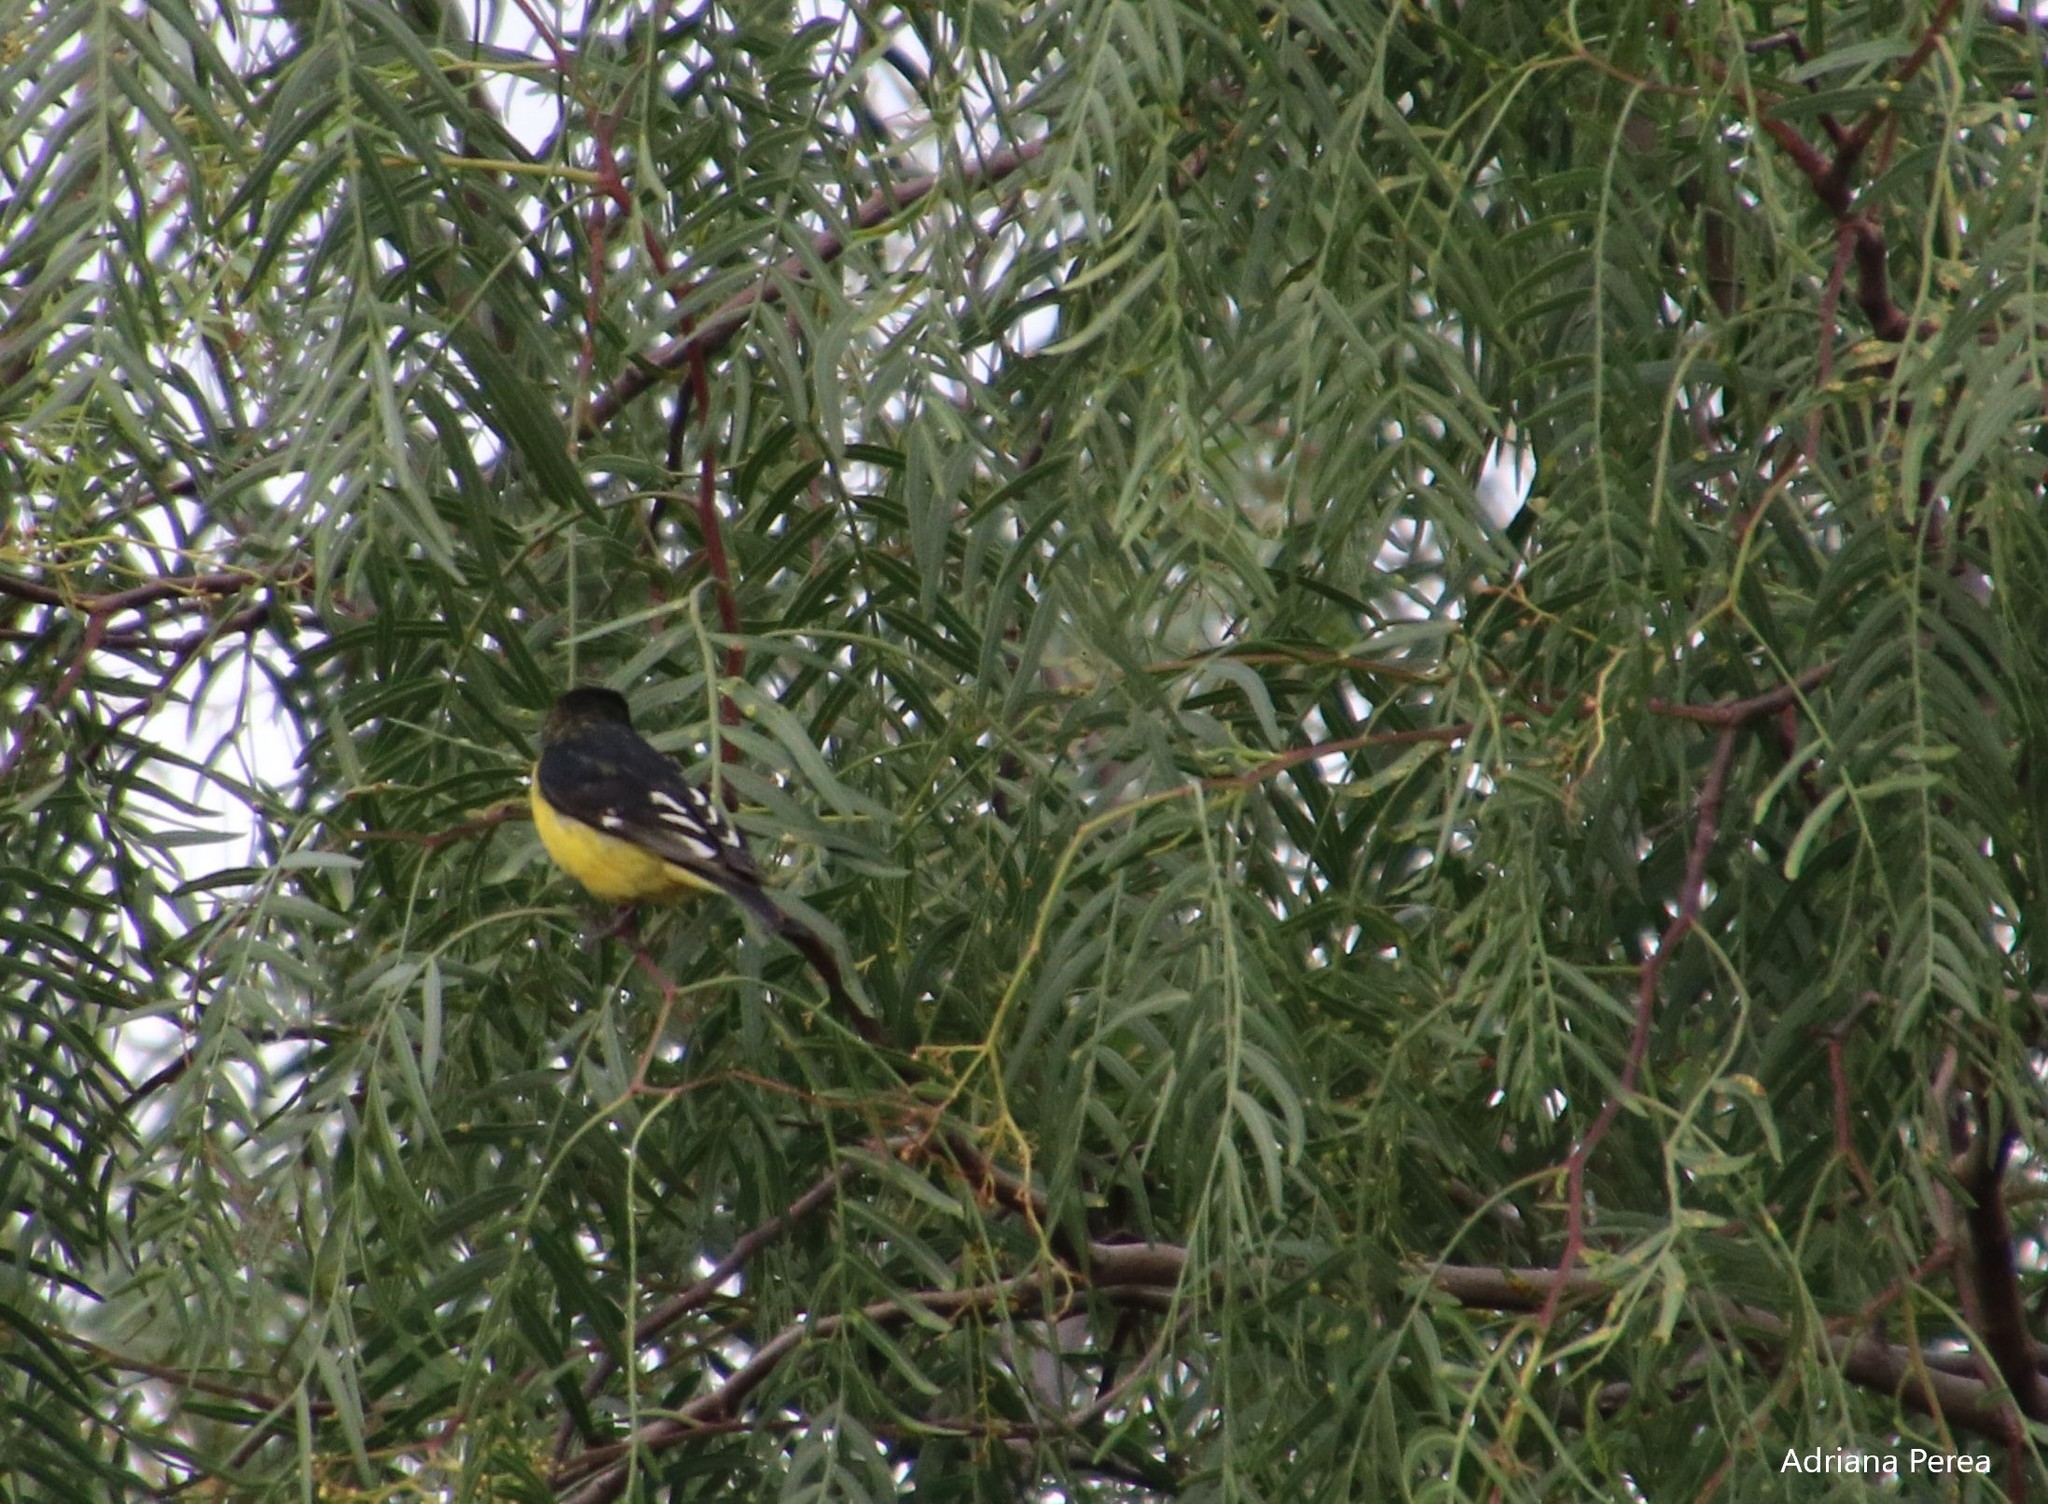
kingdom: Animalia
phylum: Chordata
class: Aves
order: Passeriformes
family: Fringillidae
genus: Spinus
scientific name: Spinus psaltria
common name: Lesser goldfinch
